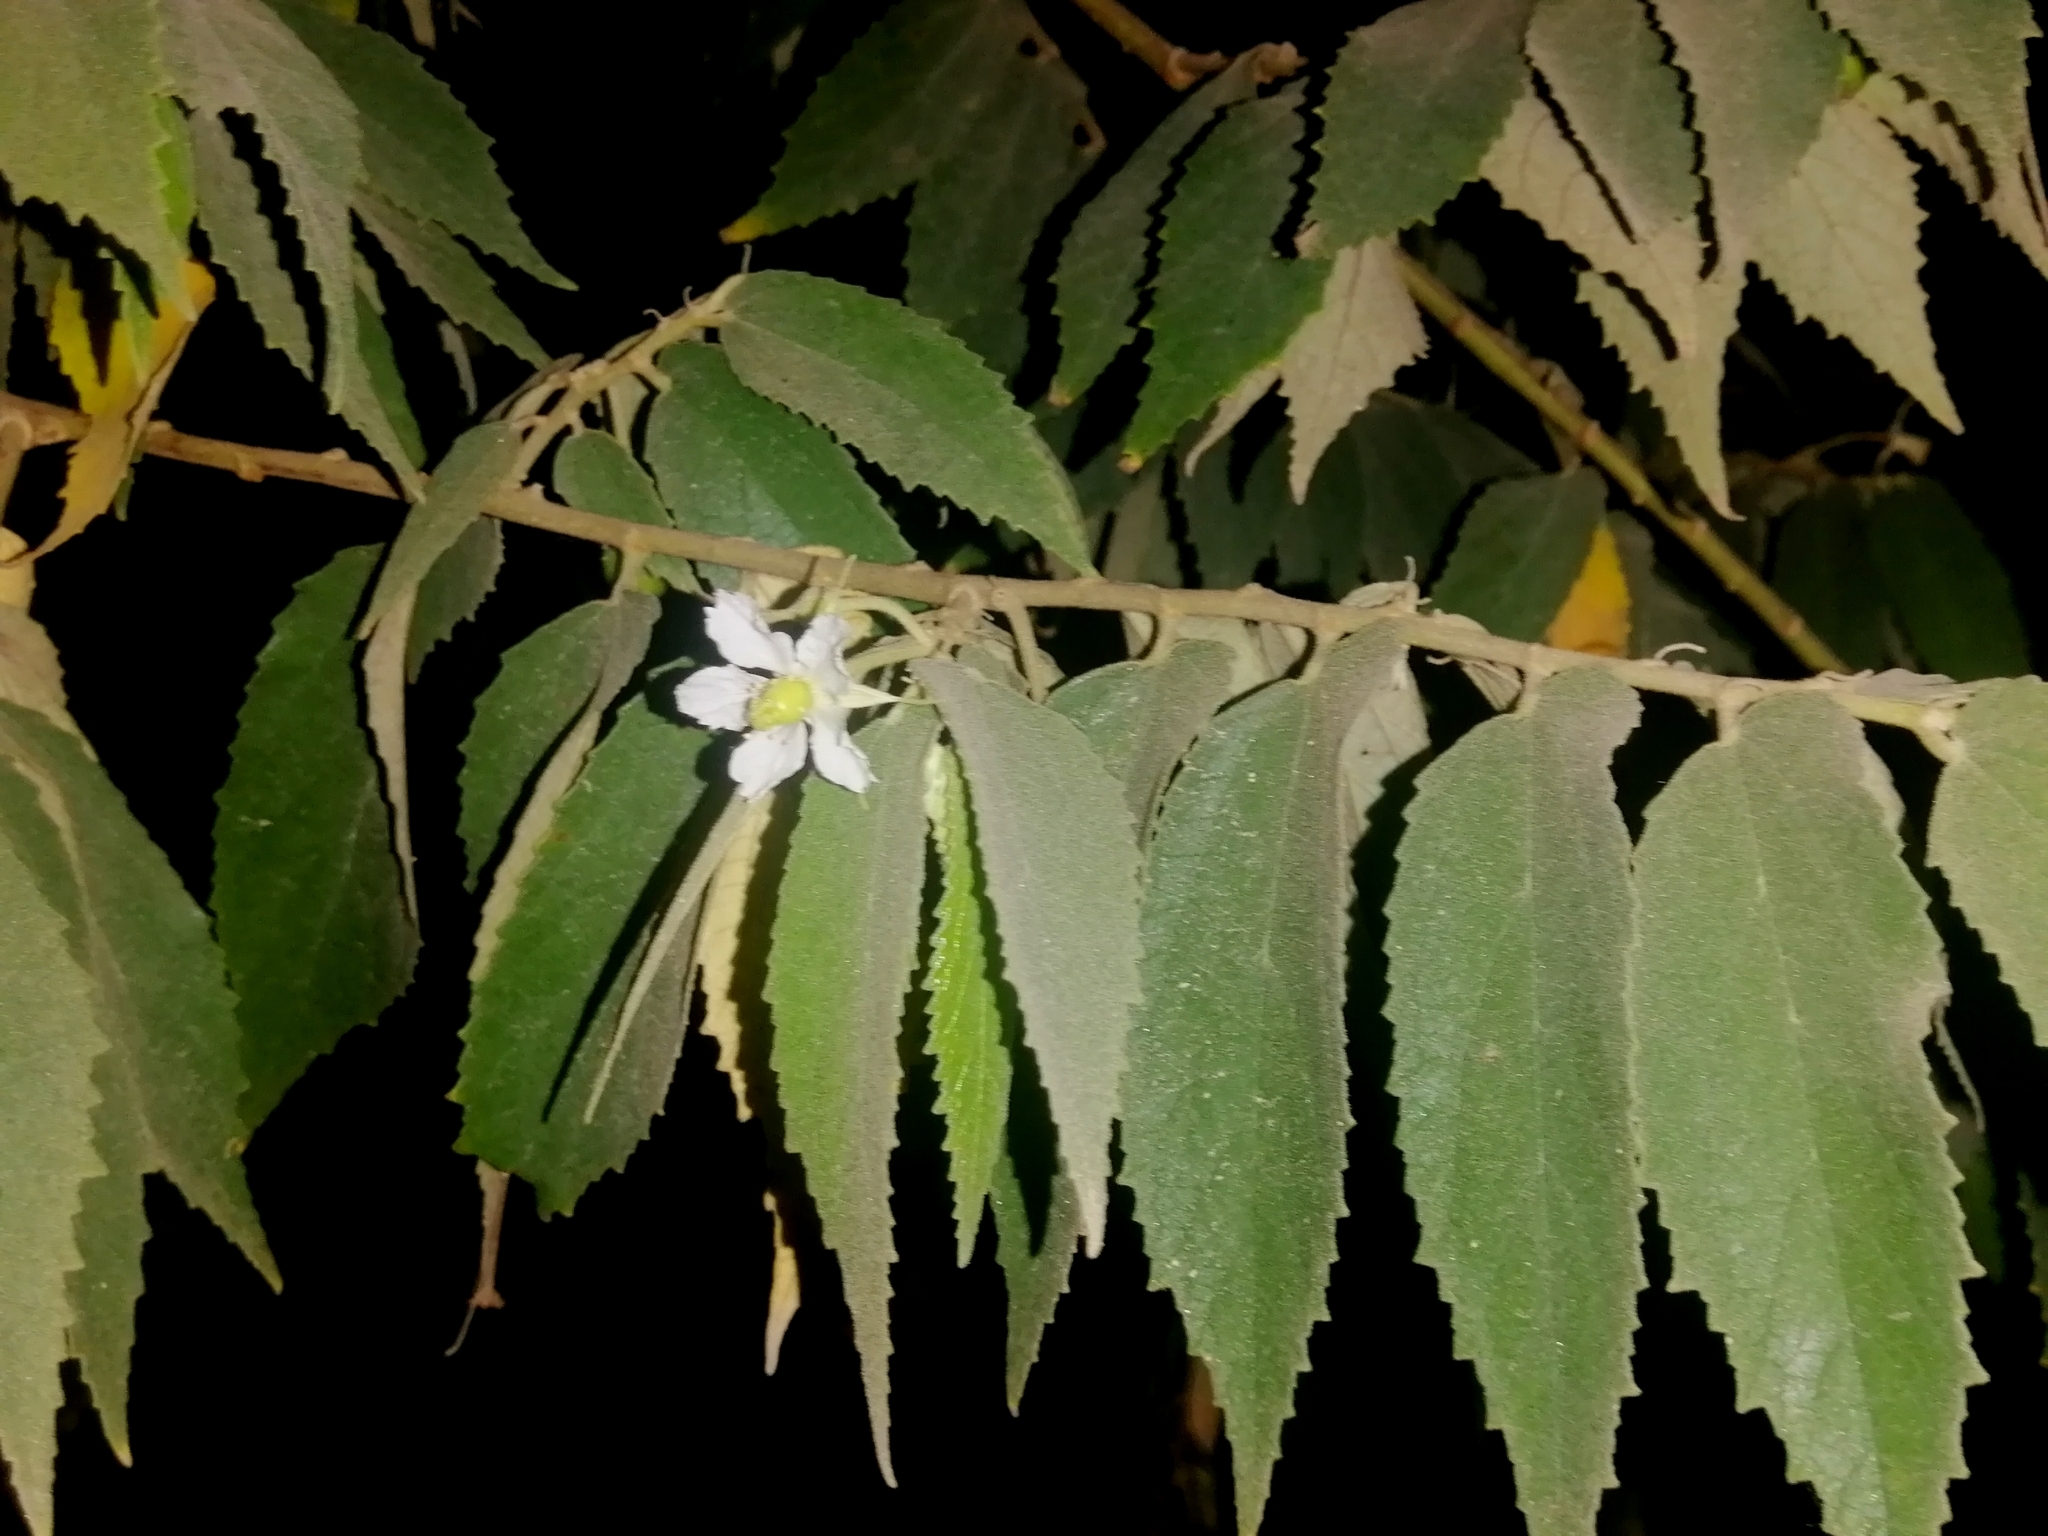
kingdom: Plantae
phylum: Tracheophyta
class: Magnoliopsida
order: Malvales
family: Muntingiaceae
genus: Muntingia
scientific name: Muntingia calabura
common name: Strawberrytree
